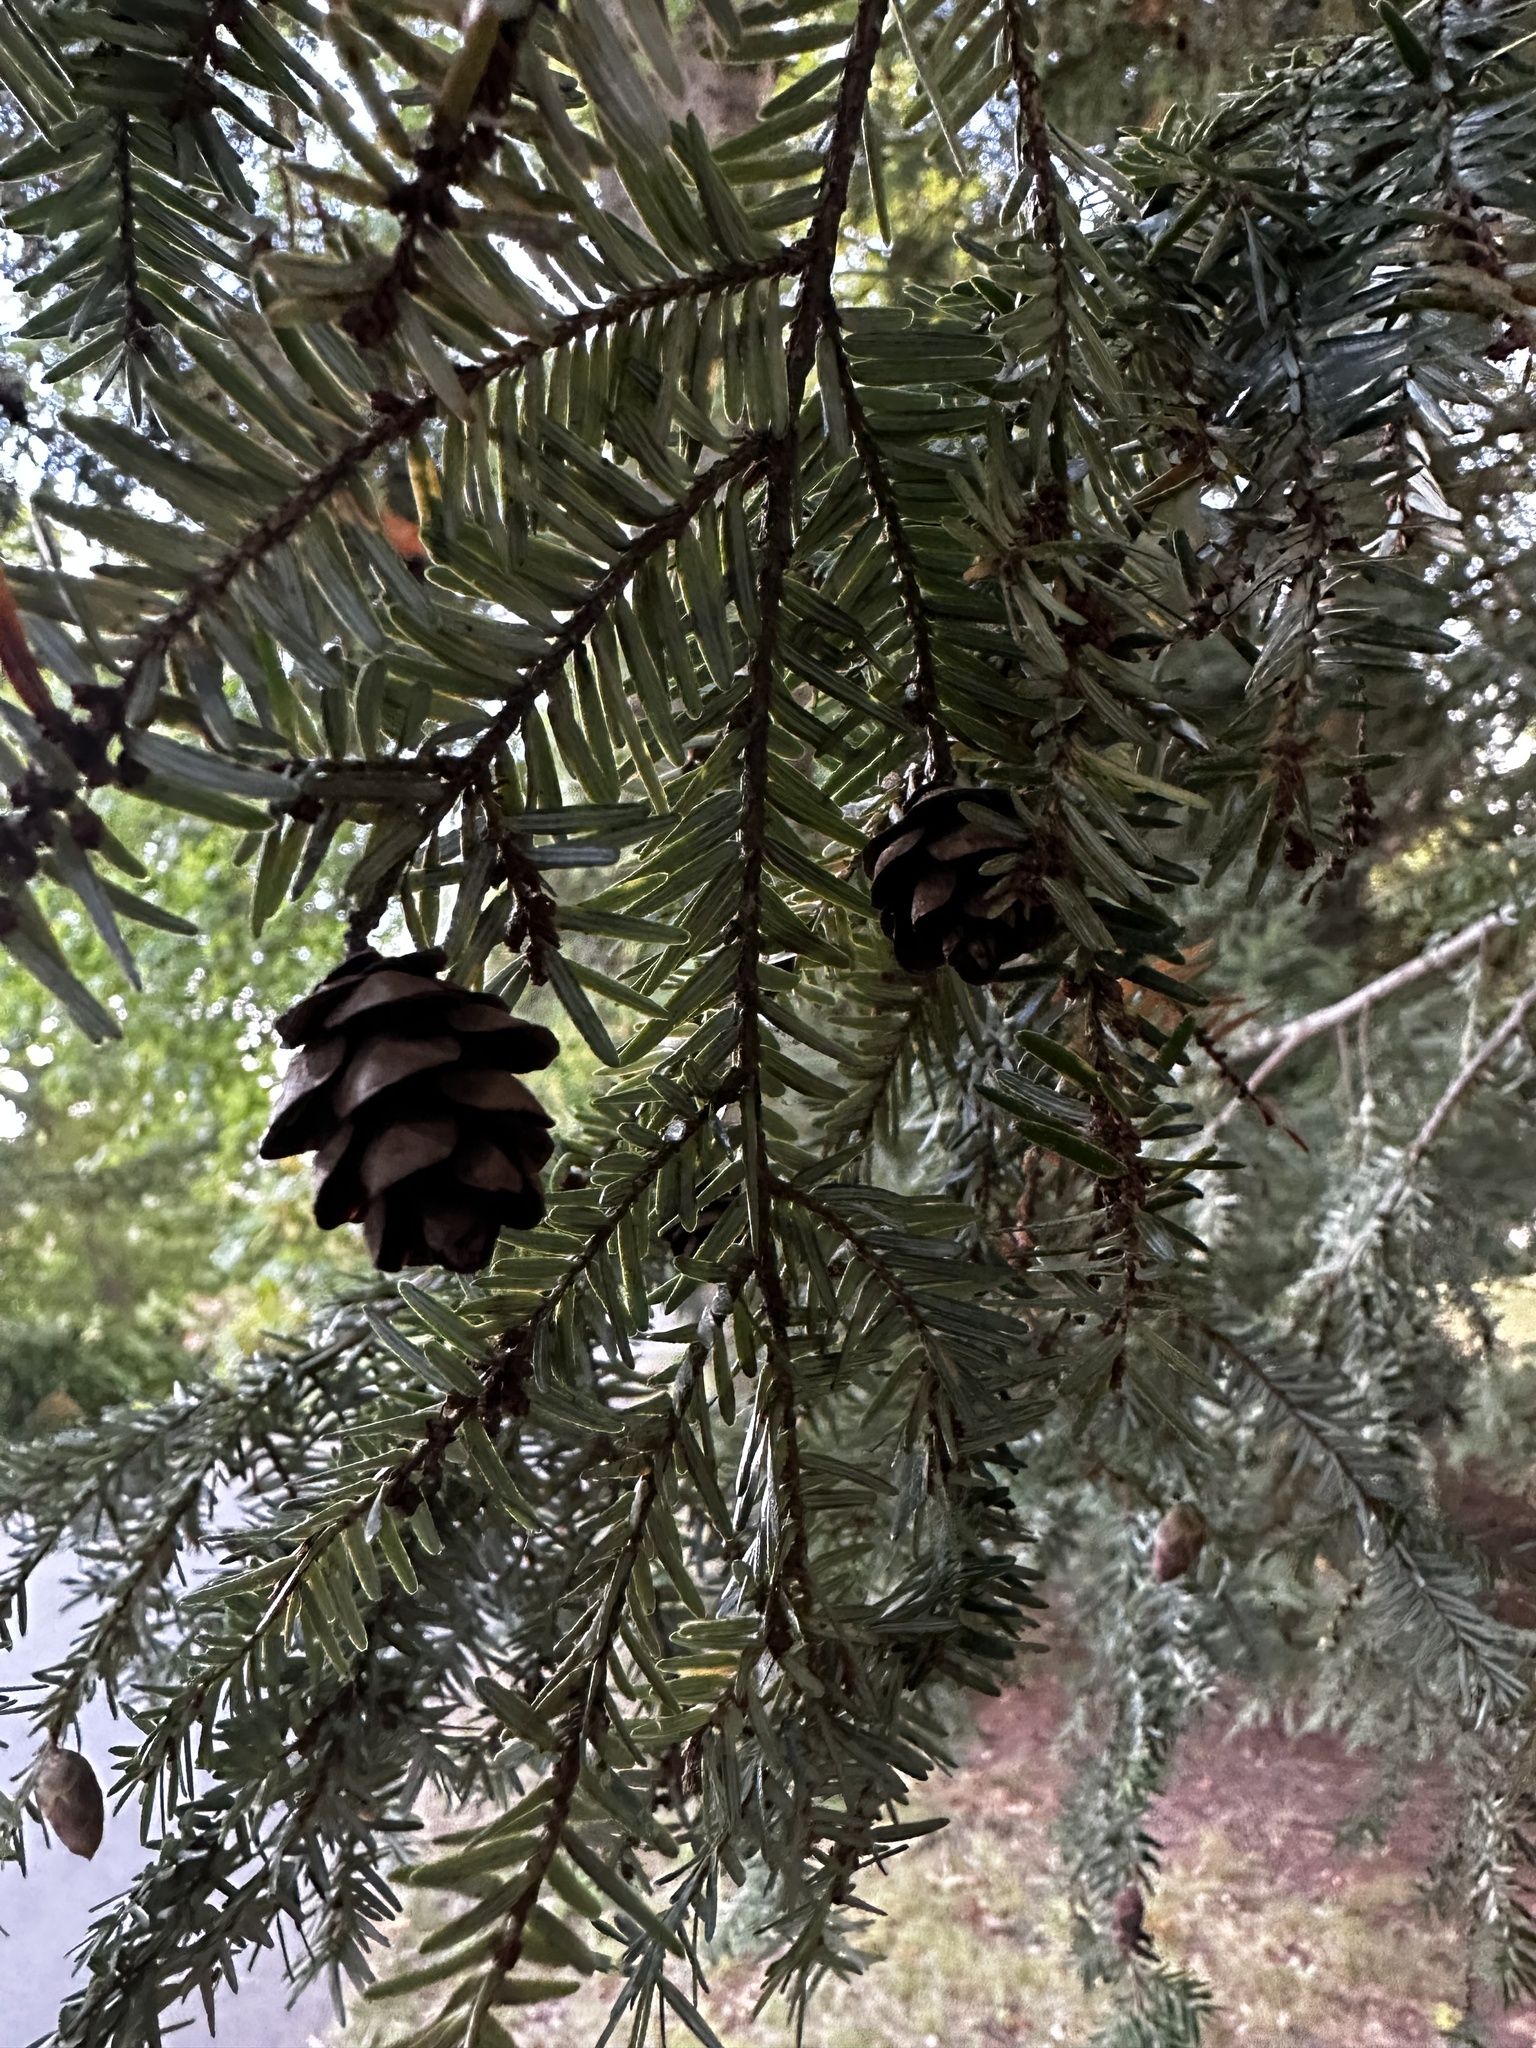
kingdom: Plantae
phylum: Tracheophyta
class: Pinopsida
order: Pinales
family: Pinaceae
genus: Tsuga
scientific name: Tsuga canadensis
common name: Eastern hemlock
